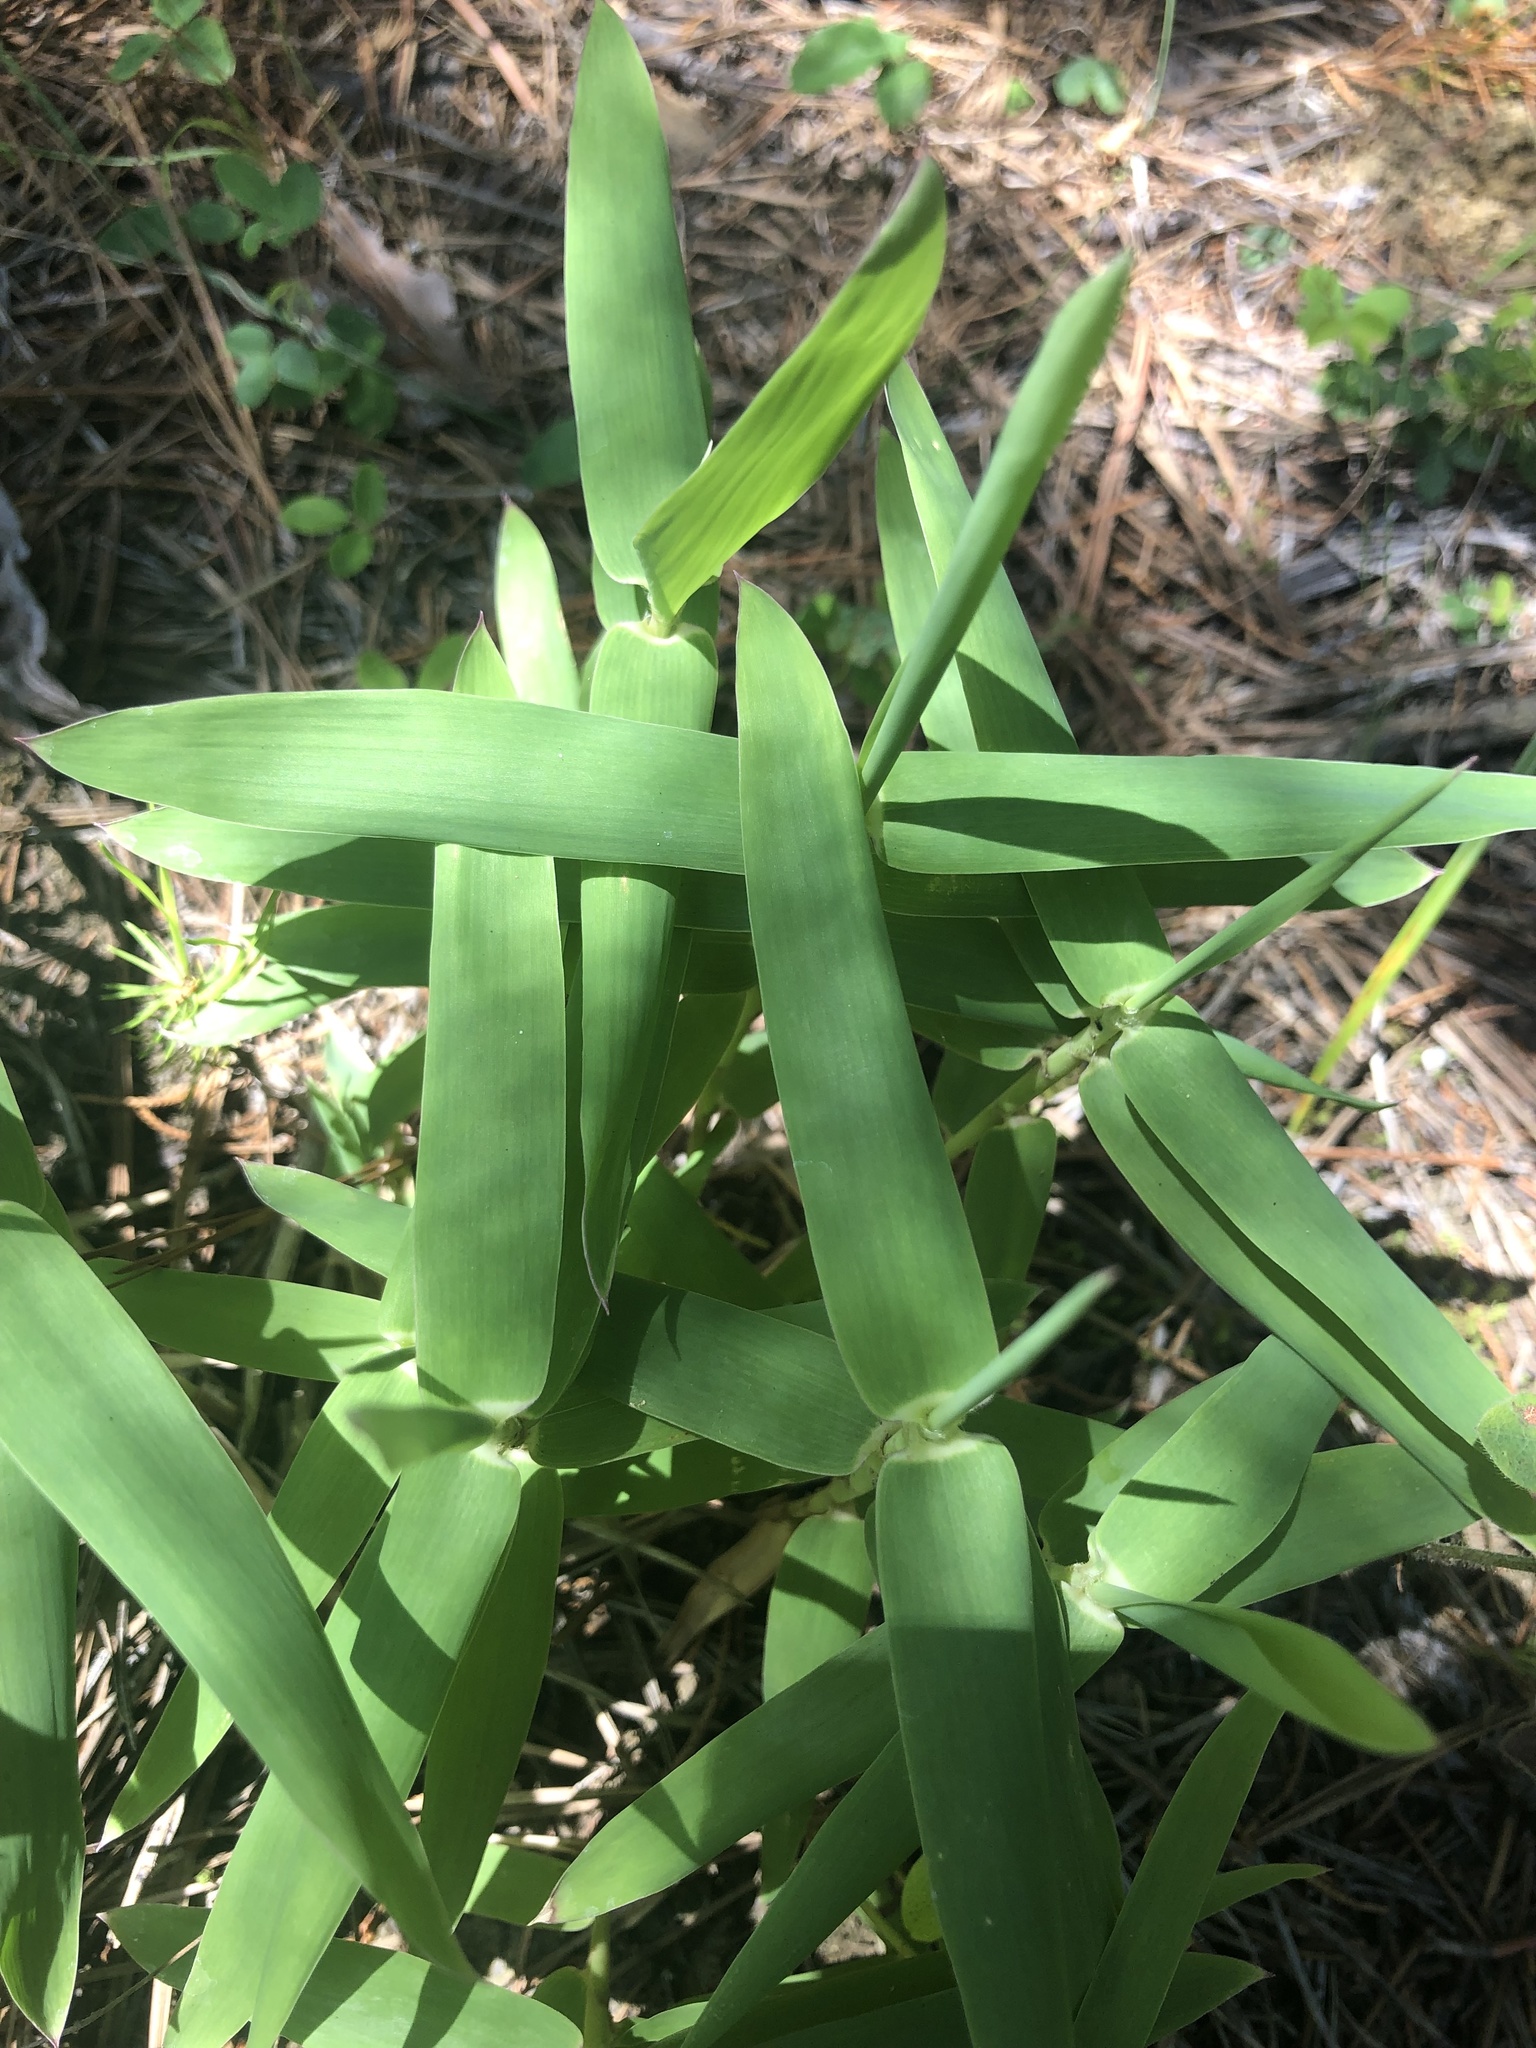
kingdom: Plantae
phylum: Tracheophyta
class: Liliopsida
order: Poales
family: Poaceae
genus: Gymnopogon
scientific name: Gymnopogon ambiguus
